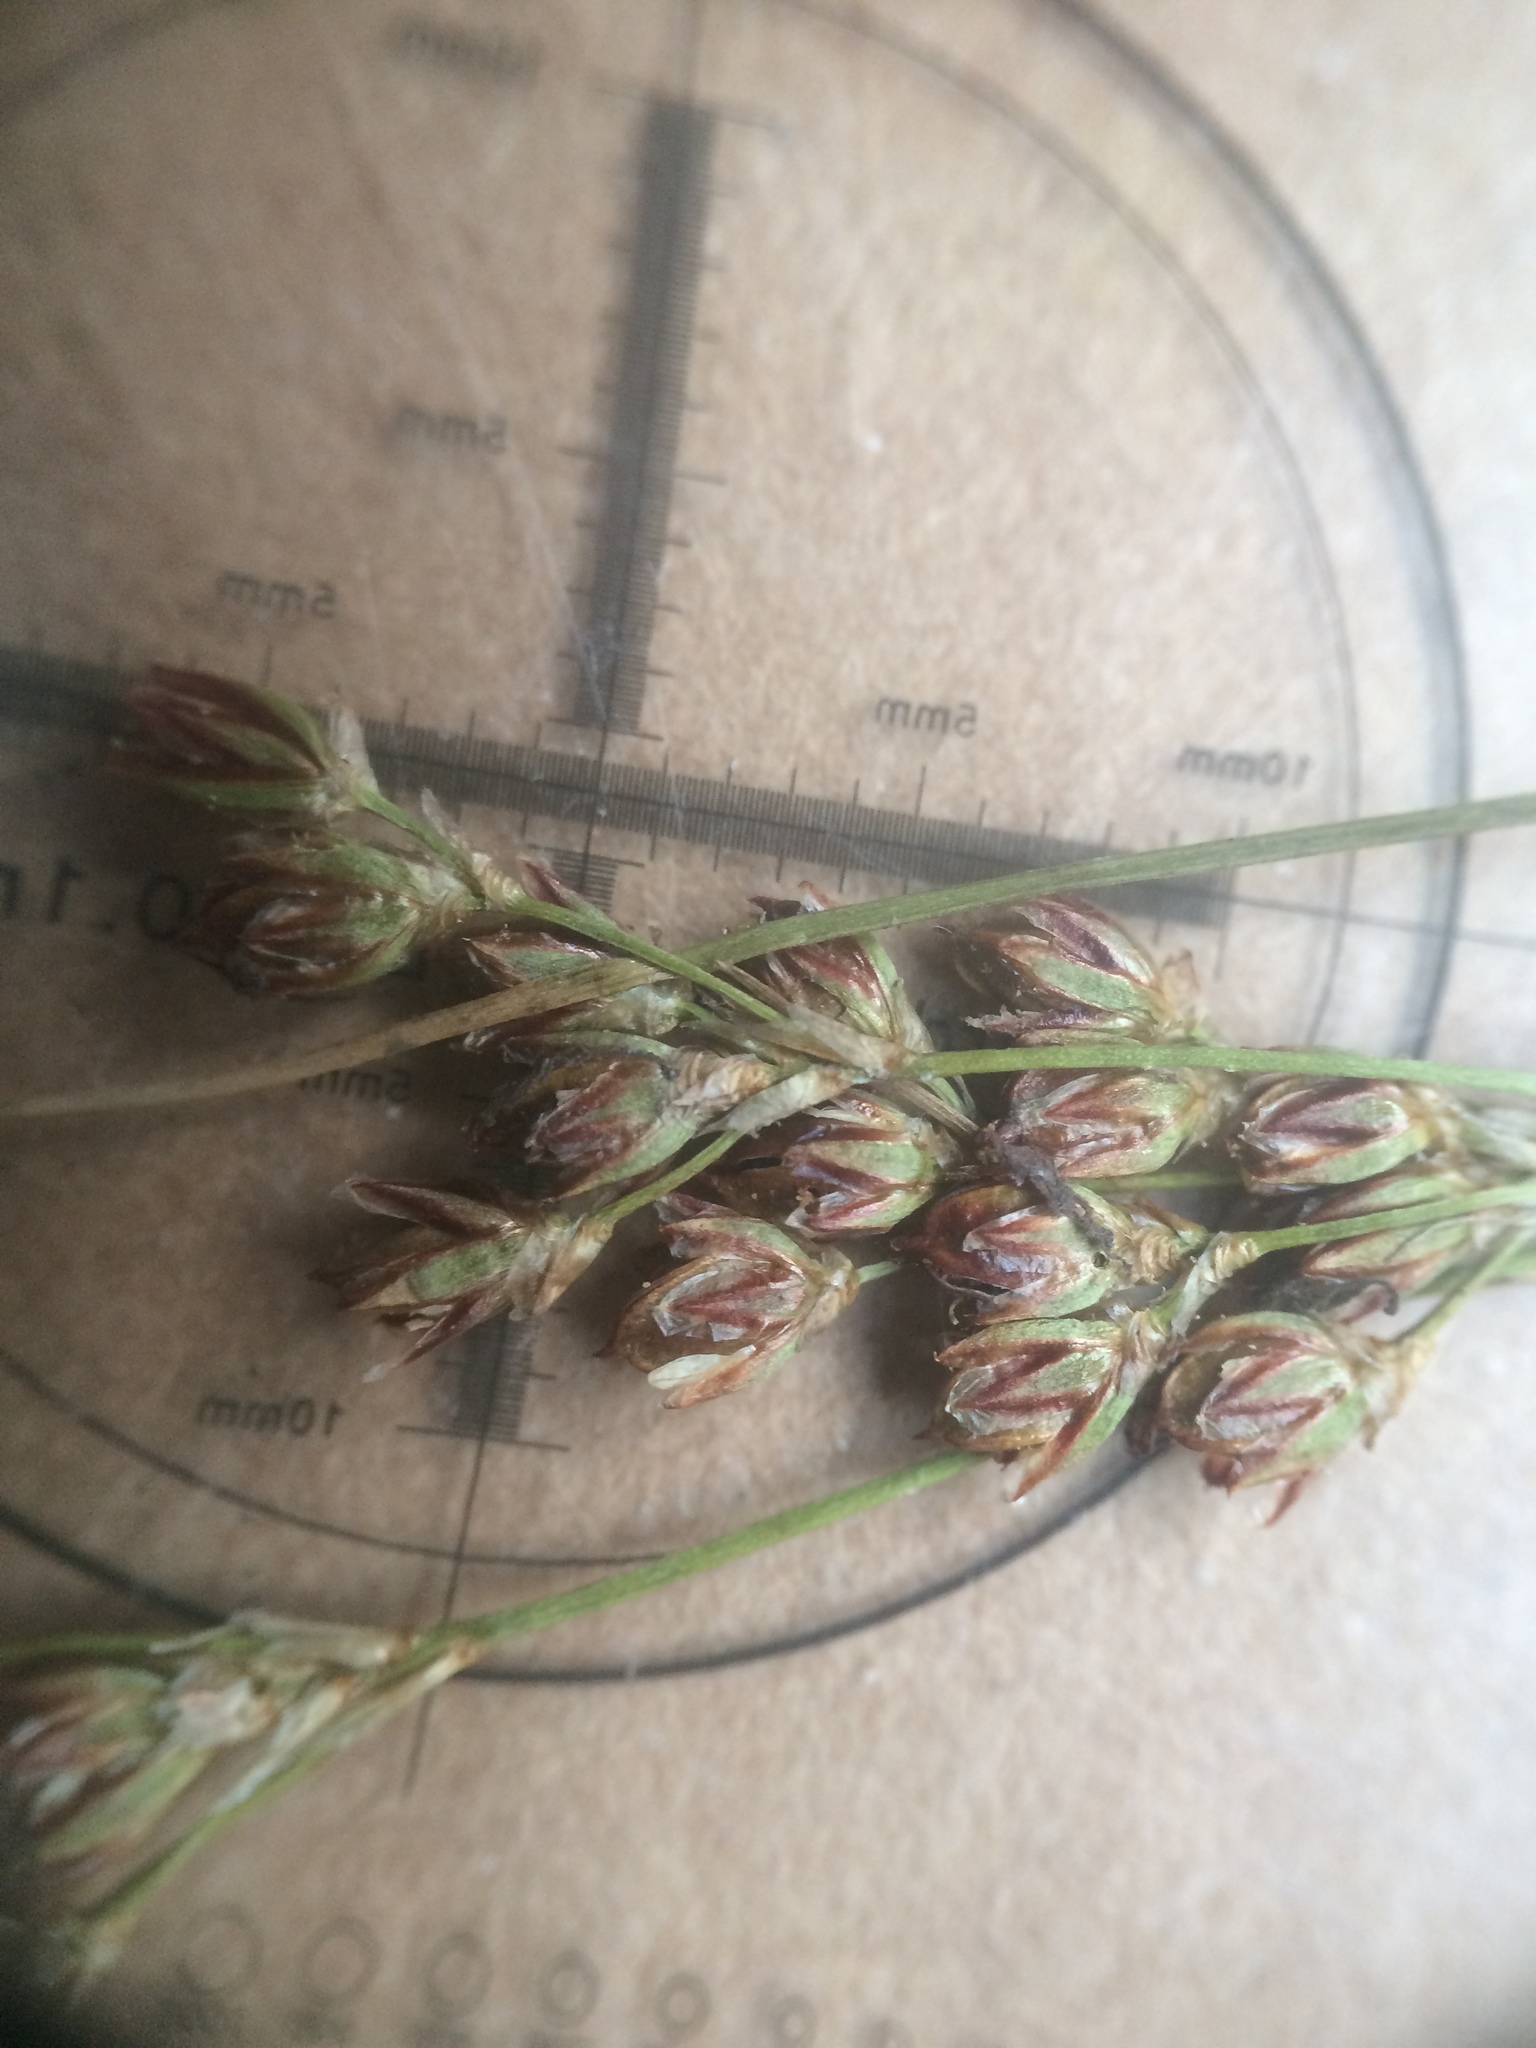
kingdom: Plantae
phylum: Tracheophyta
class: Liliopsida
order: Poales
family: Juncaceae
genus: Juncus
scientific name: Juncus gerardi
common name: Saltmarsh rush
